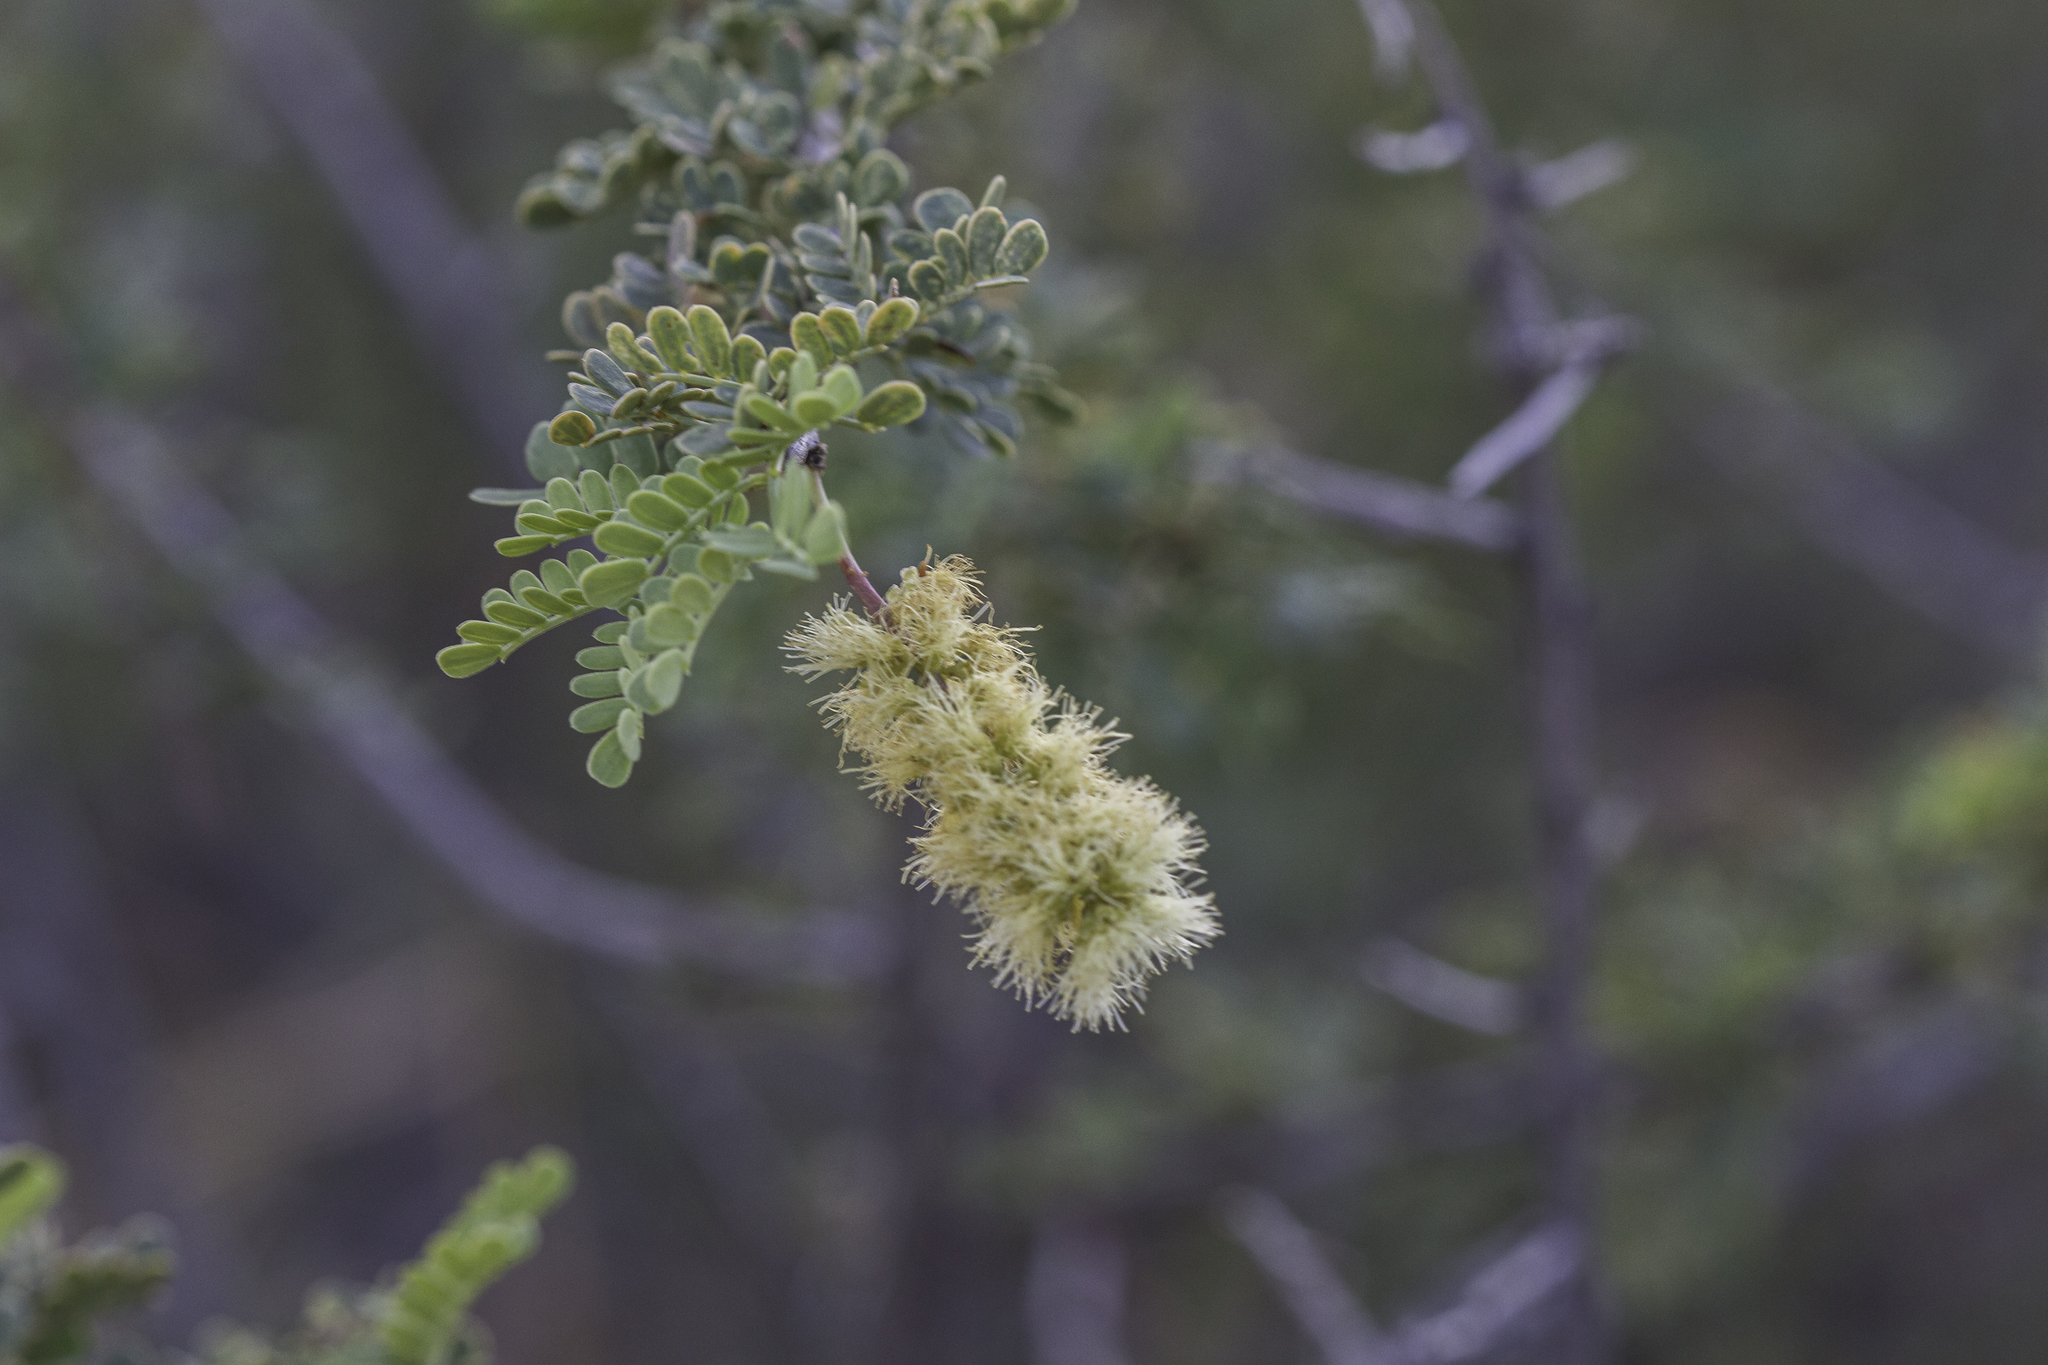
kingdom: Plantae
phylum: Tracheophyta
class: Magnoliopsida
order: Fabales
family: Fabaceae
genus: Senegalia
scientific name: Senegalia greggii
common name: Texas-mimosa
